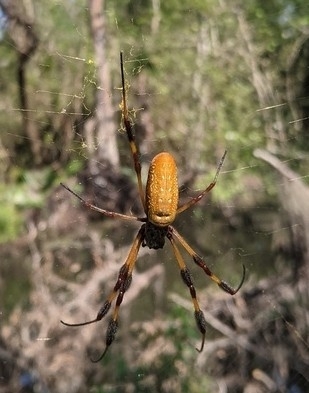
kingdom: Animalia
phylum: Arthropoda
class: Arachnida
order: Araneae
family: Araneidae
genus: Trichonephila
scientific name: Trichonephila clavipes
